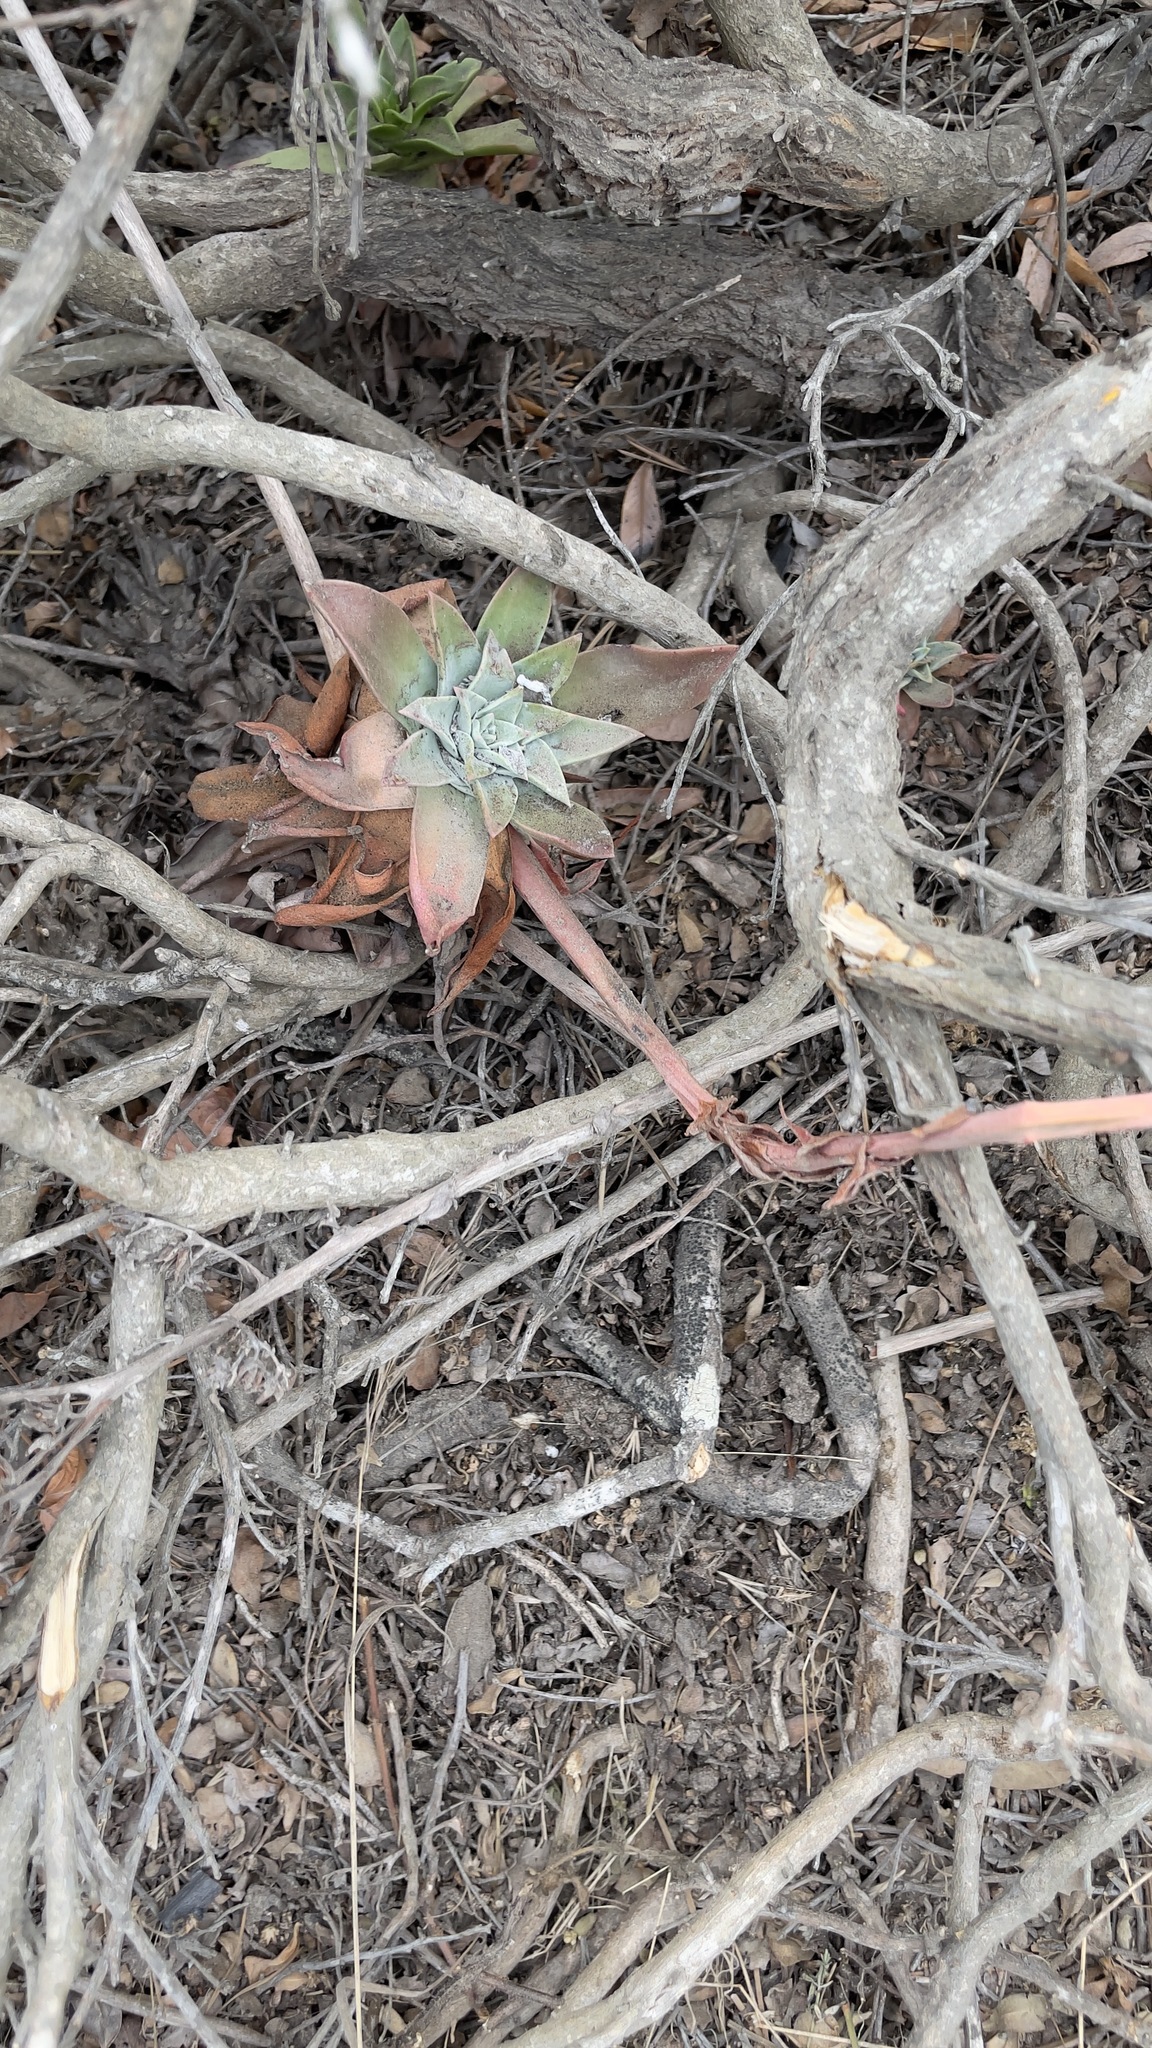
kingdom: Plantae
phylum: Tracheophyta
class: Magnoliopsida
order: Saxifragales
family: Crassulaceae
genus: Dudleya
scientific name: Dudleya caespitosa
